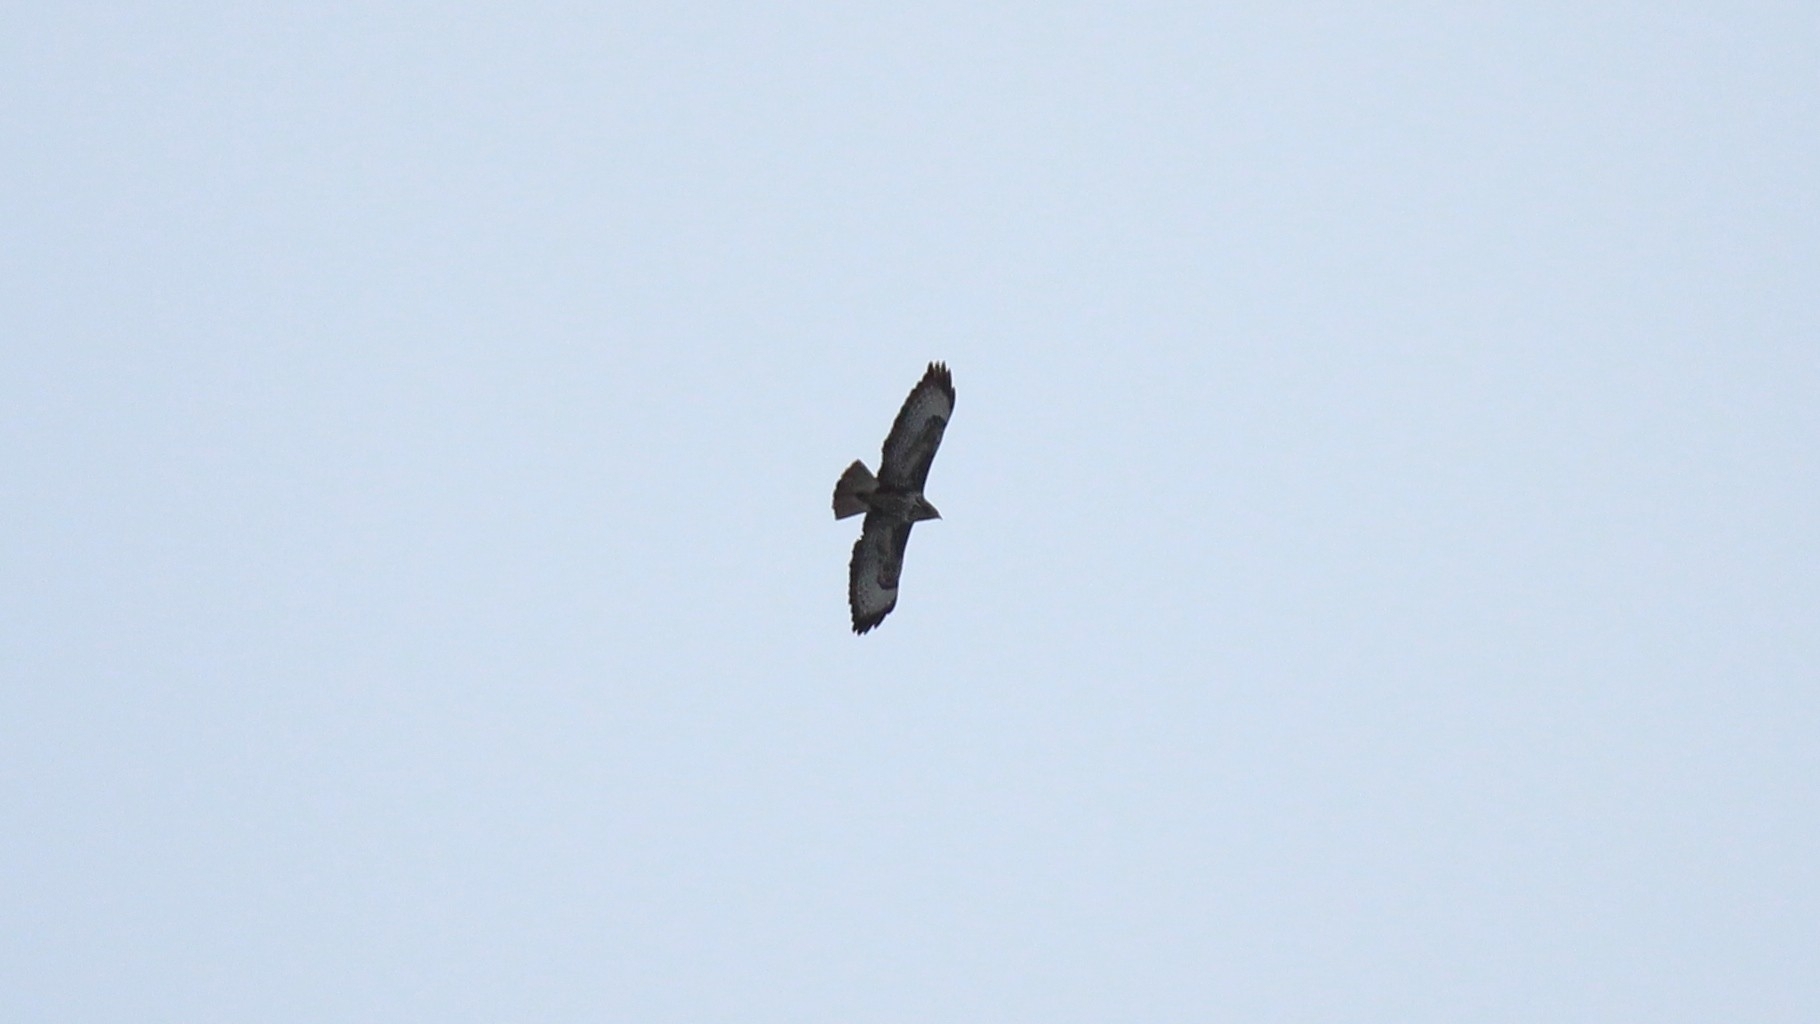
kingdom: Animalia
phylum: Chordata
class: Aves
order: Accipitriformes
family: Accipitridae
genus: Buteo
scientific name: Buteo buteo
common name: Common buzzard
